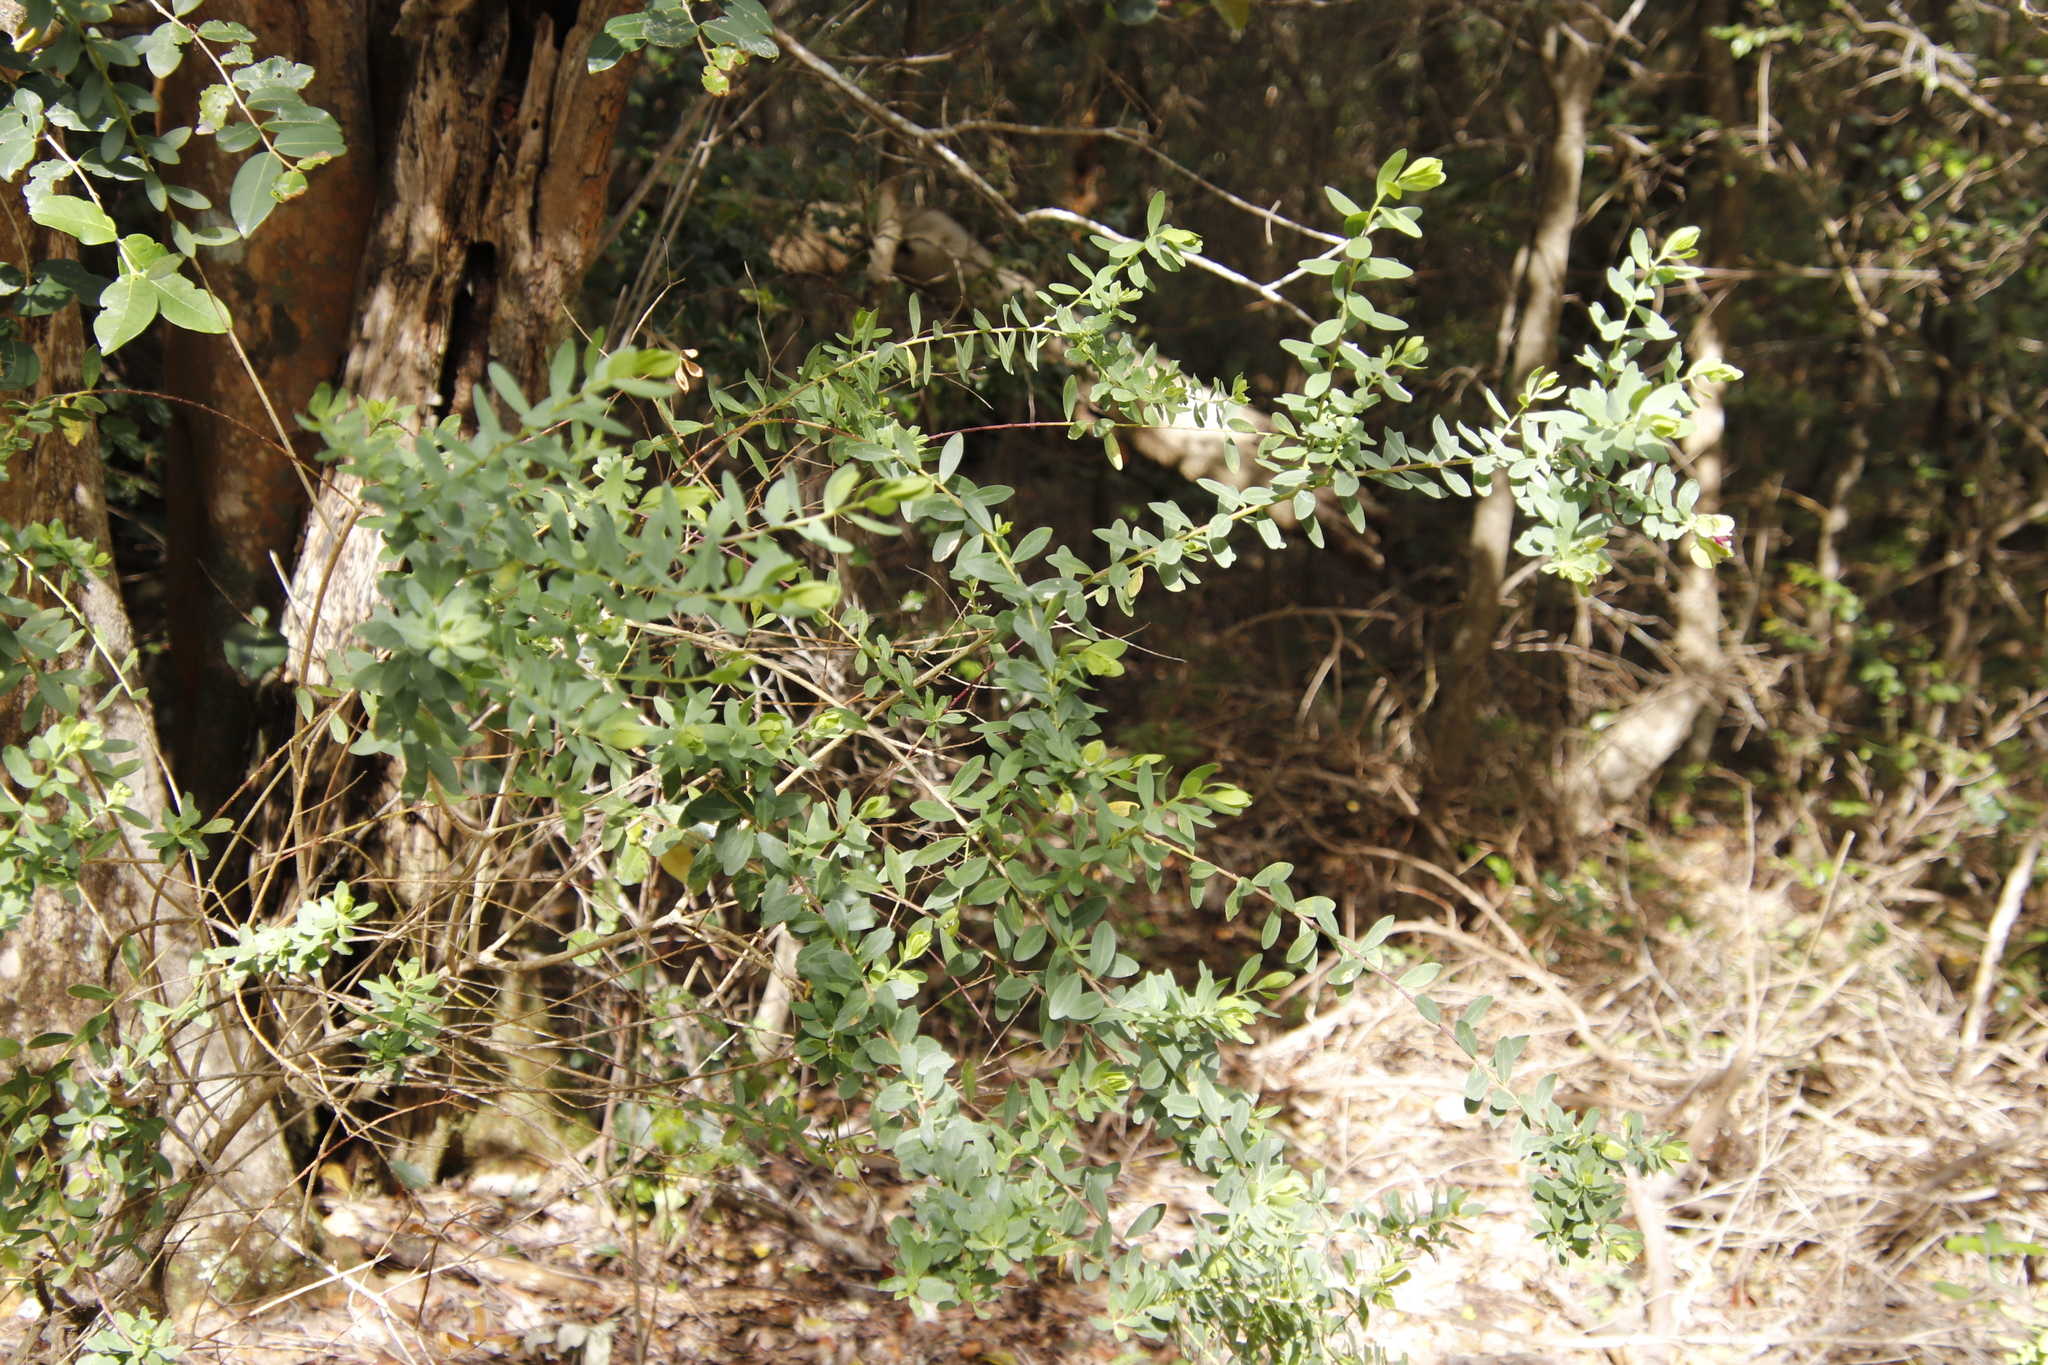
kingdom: Plantae
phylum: Tracheophyta
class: Magnoliopsida
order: Fabales
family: Polygalaceae
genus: Polygala
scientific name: Polygala myrtifolia
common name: Myrtle-leaf milkwort
